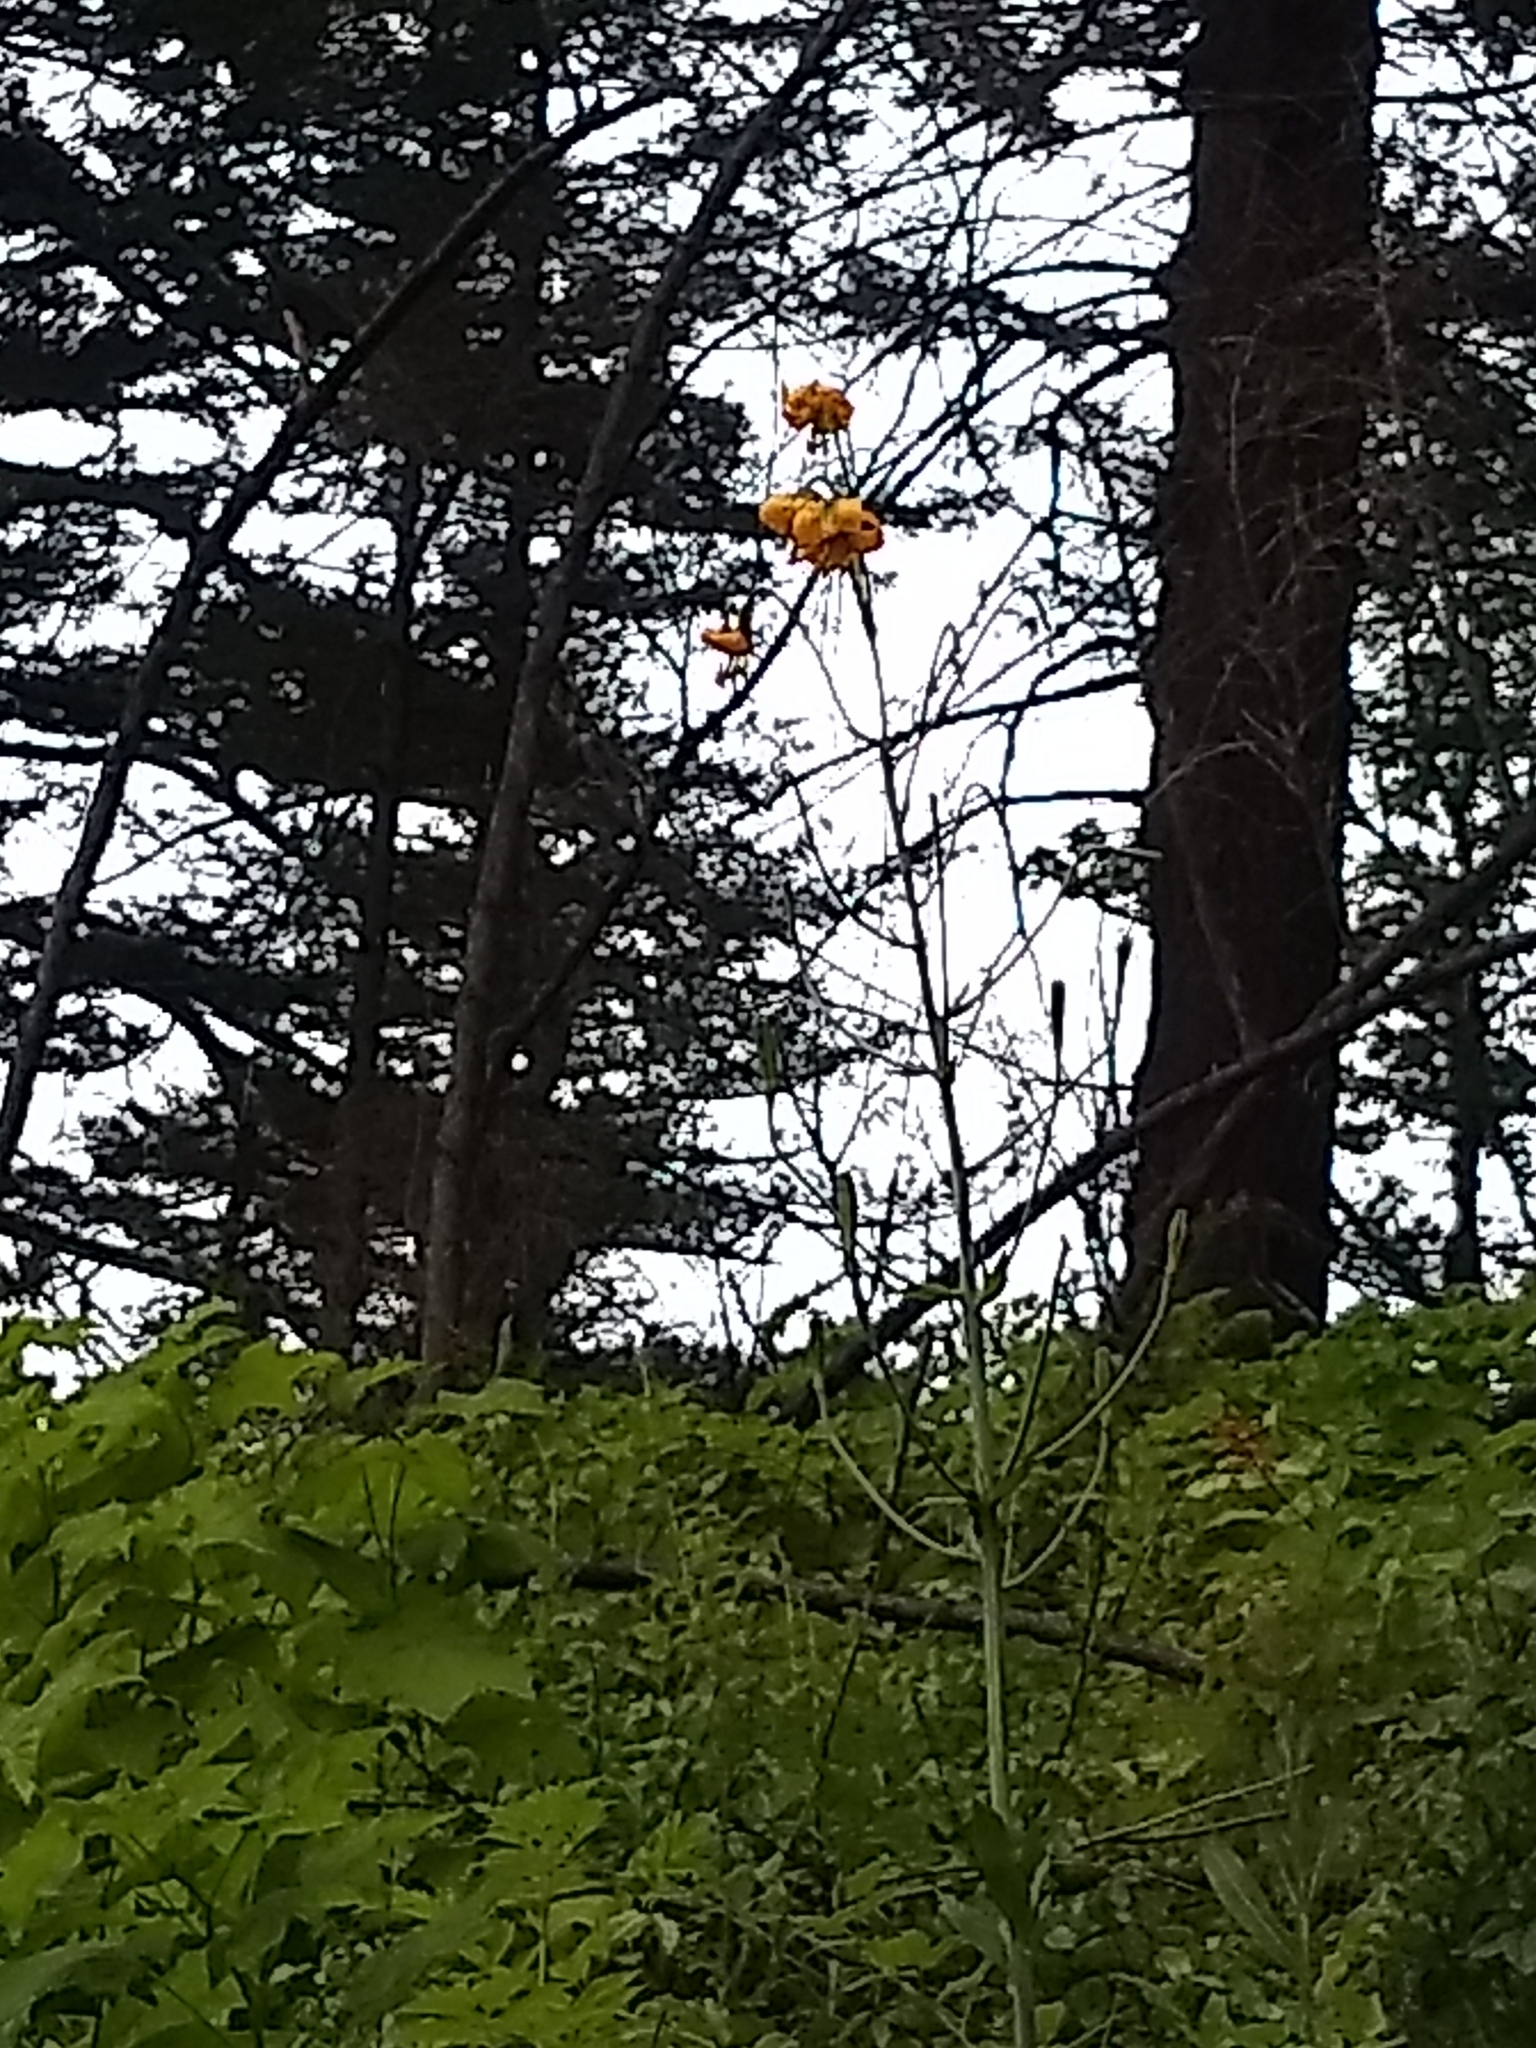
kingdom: Plantae
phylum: Tracheophyta
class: Liliopsida
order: Liliales
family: Liliaceae
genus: Lilium
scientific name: Lilium columbianum
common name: Columbia lily
